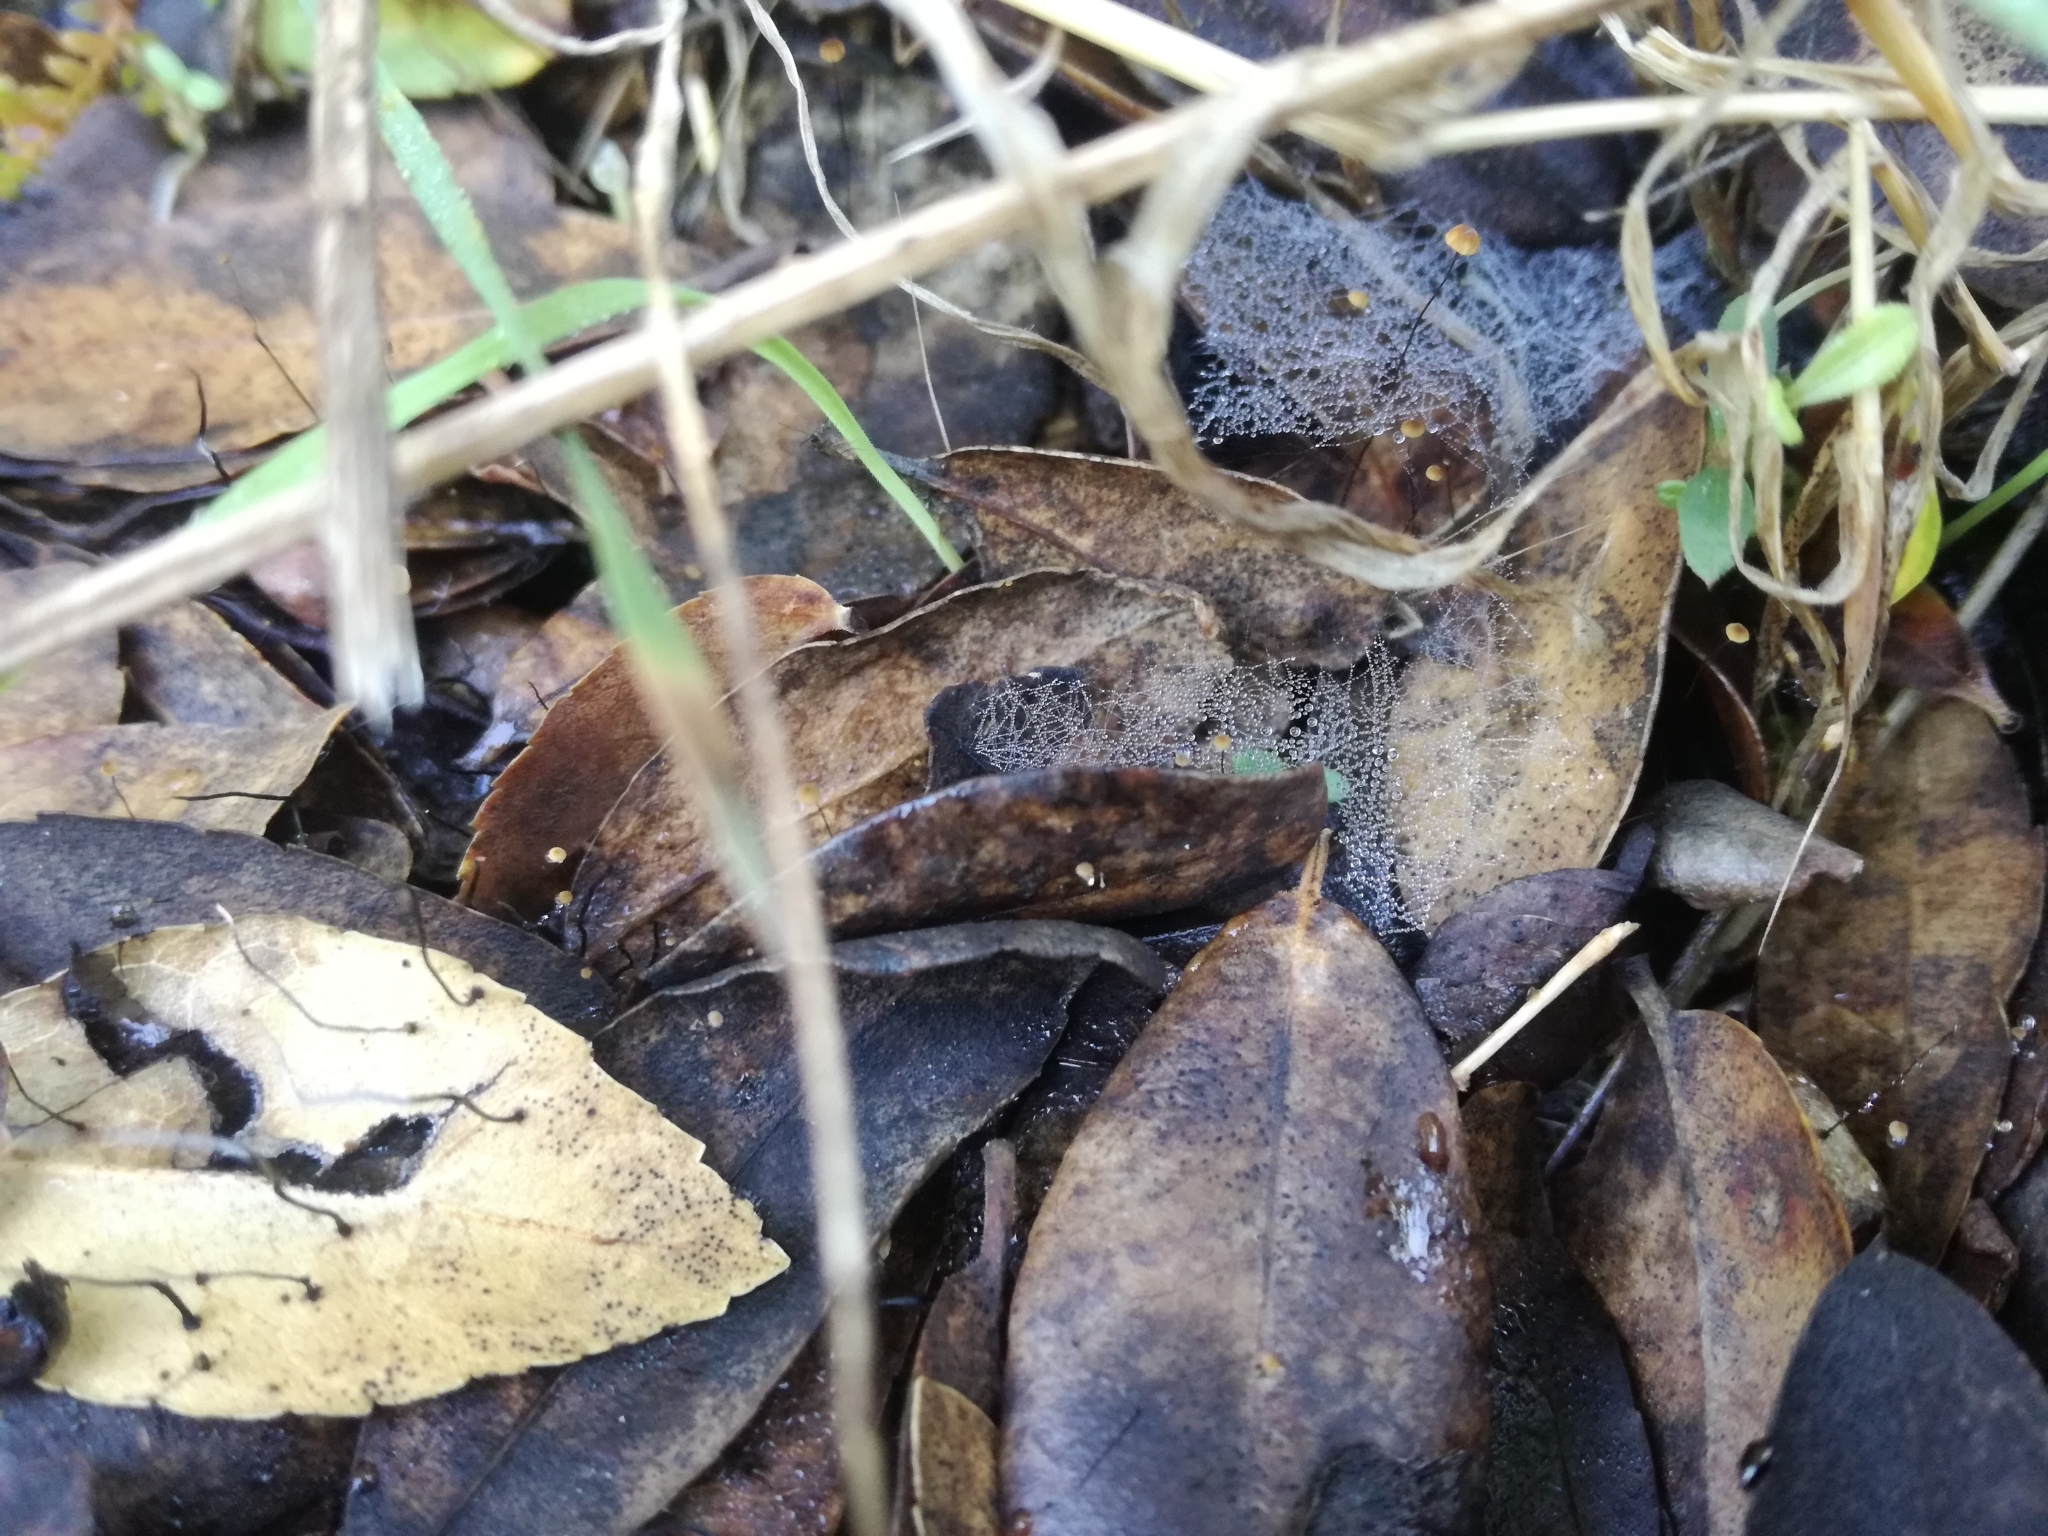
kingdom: Fungi
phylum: Basidiomycota
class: Agaricomycetes
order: Agaricales
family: Physalacriaceae
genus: Cryptomarasmius
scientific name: Cryptomarasmius corbariensis
